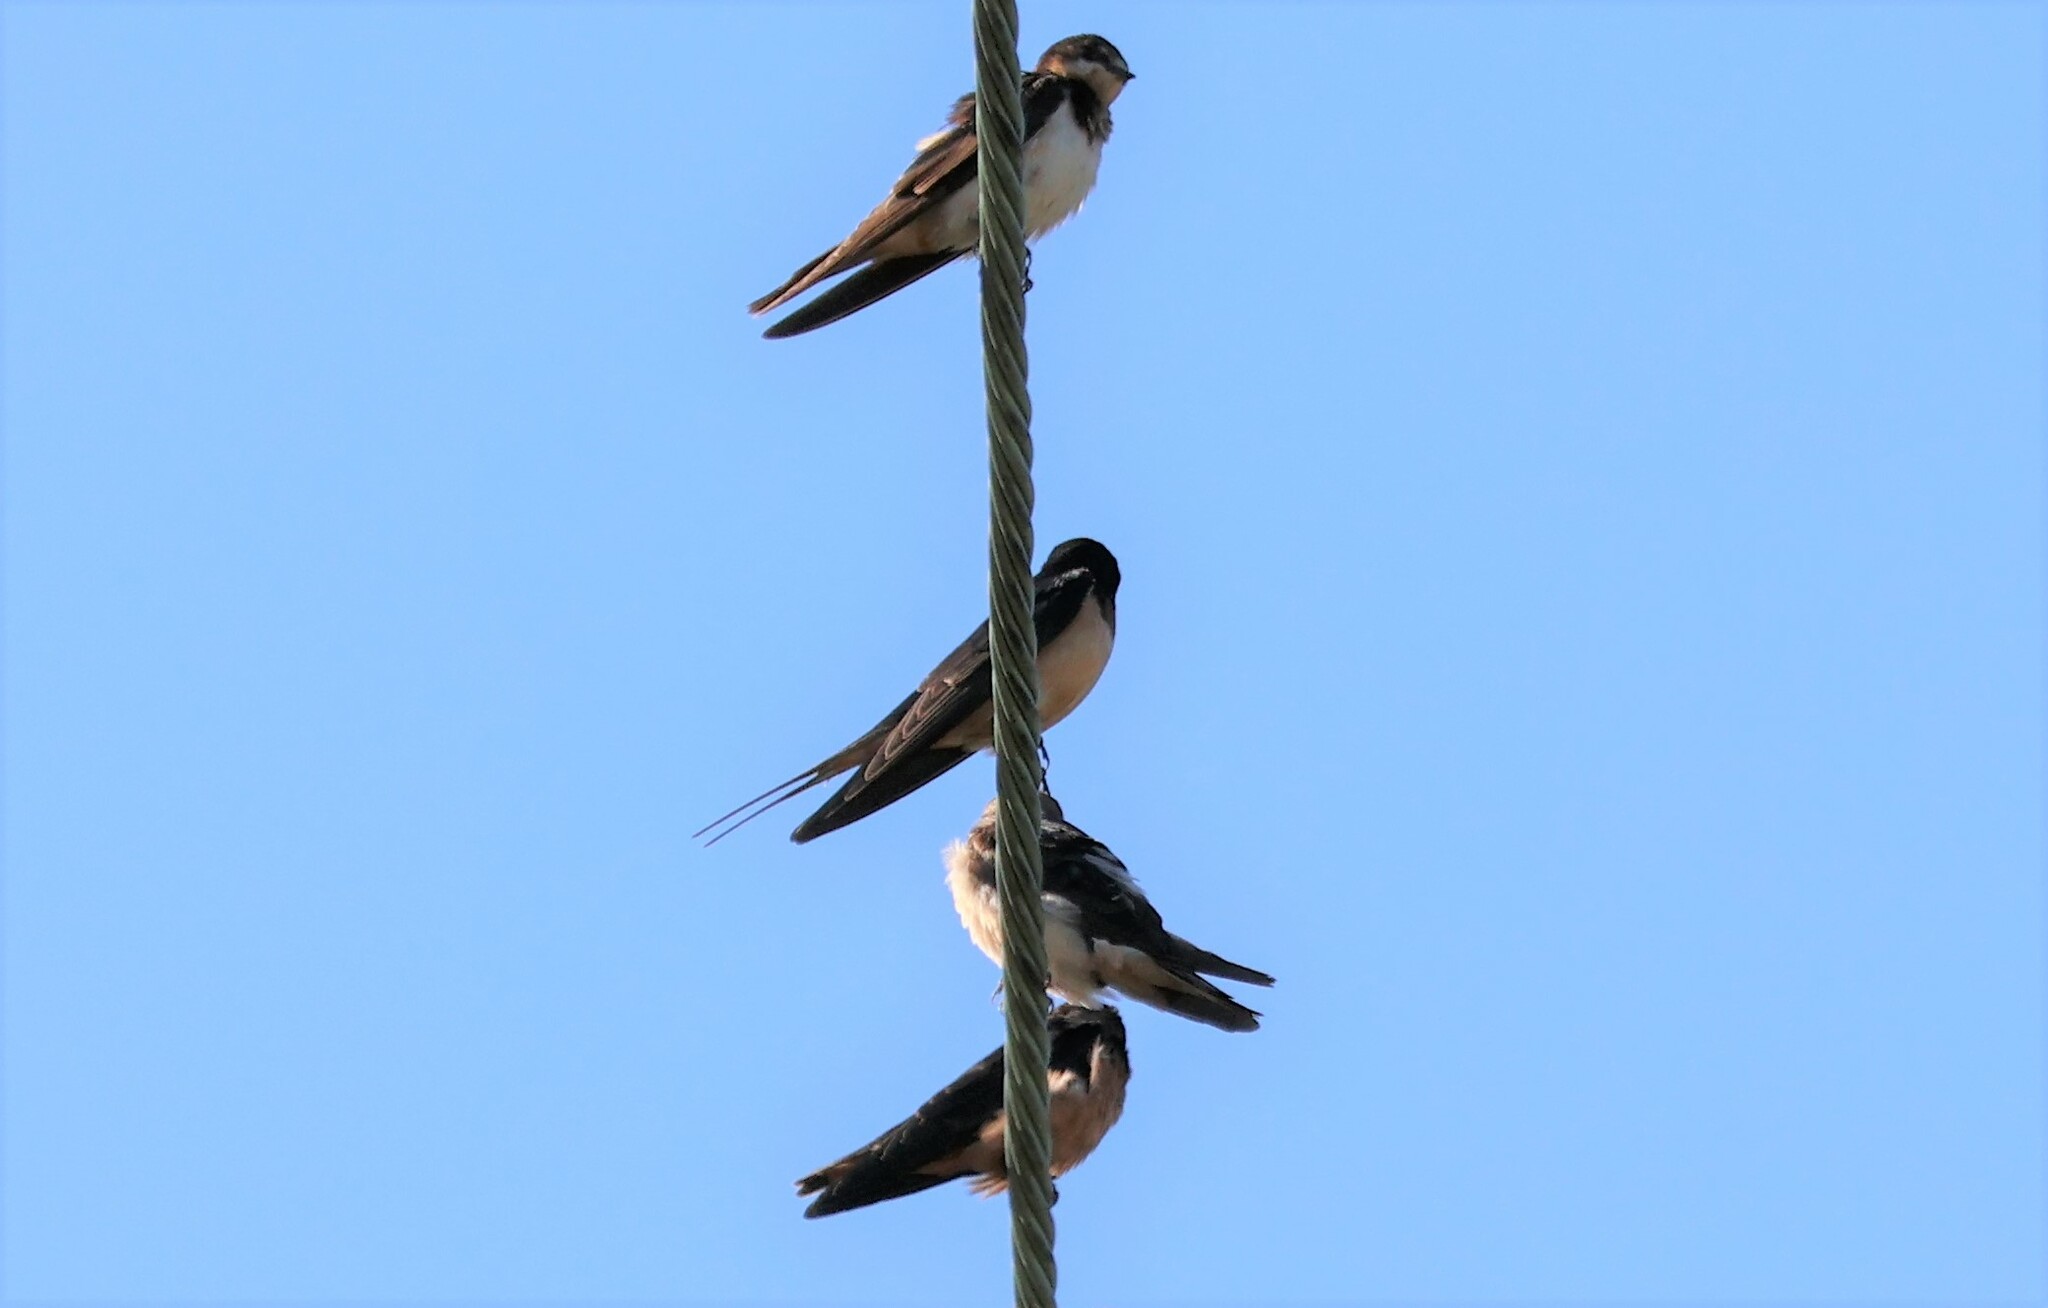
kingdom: Animalia
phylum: Chordata
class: Aves
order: Passeriformes
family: Hirundinidae
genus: Hirundo
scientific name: Hirundo rustica
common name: Barn swallow
